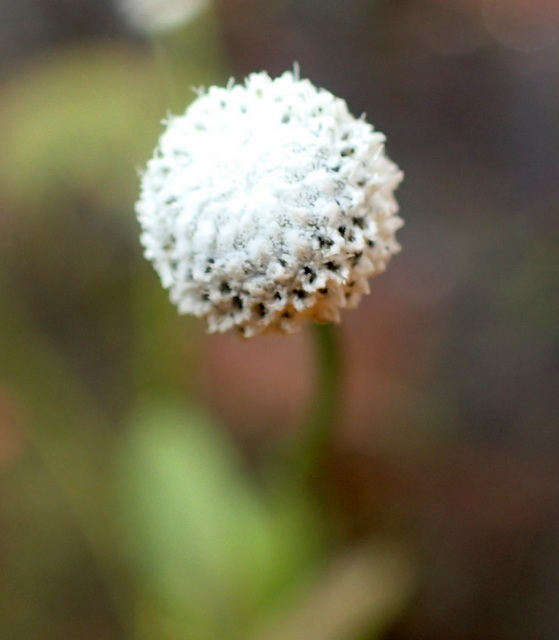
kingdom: Plantae
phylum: Tracheophyta
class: Liliopsida
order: Poales
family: Eriocaulaceae
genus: Eriocaulon
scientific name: Eriocaulon decangulare
